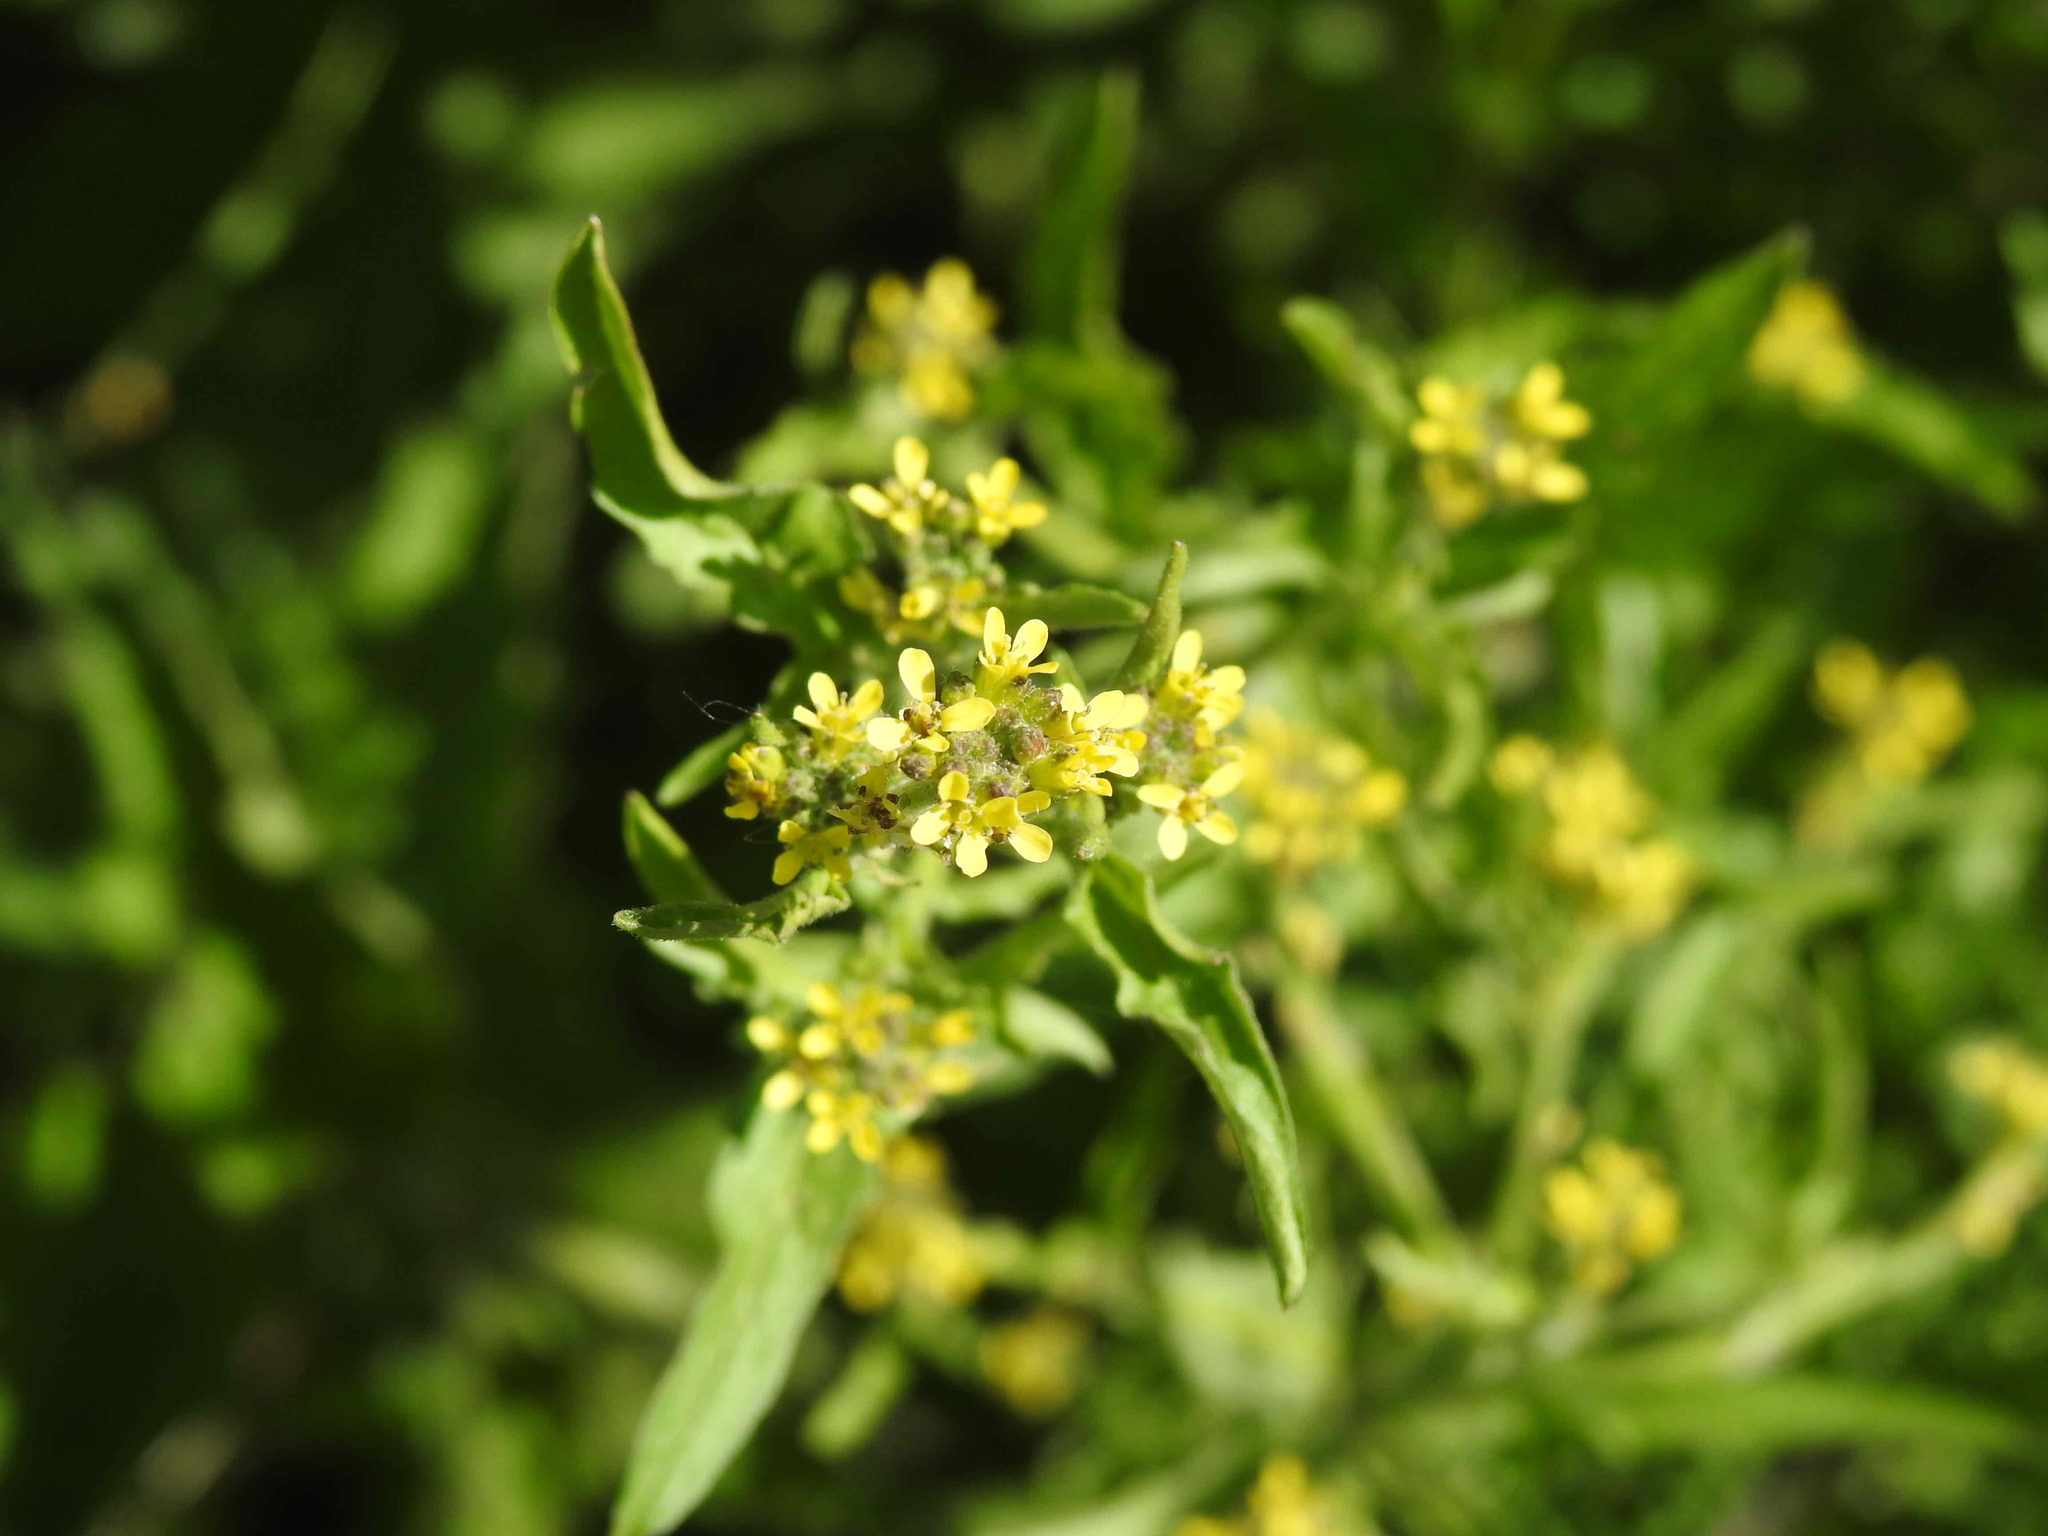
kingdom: Plantae
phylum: Tracheophyta
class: Magnoliopsida
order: Brassicales
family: Brassicaceae
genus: Sisymbrium
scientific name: Sisymbrium officinale
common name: Hedge mustard
